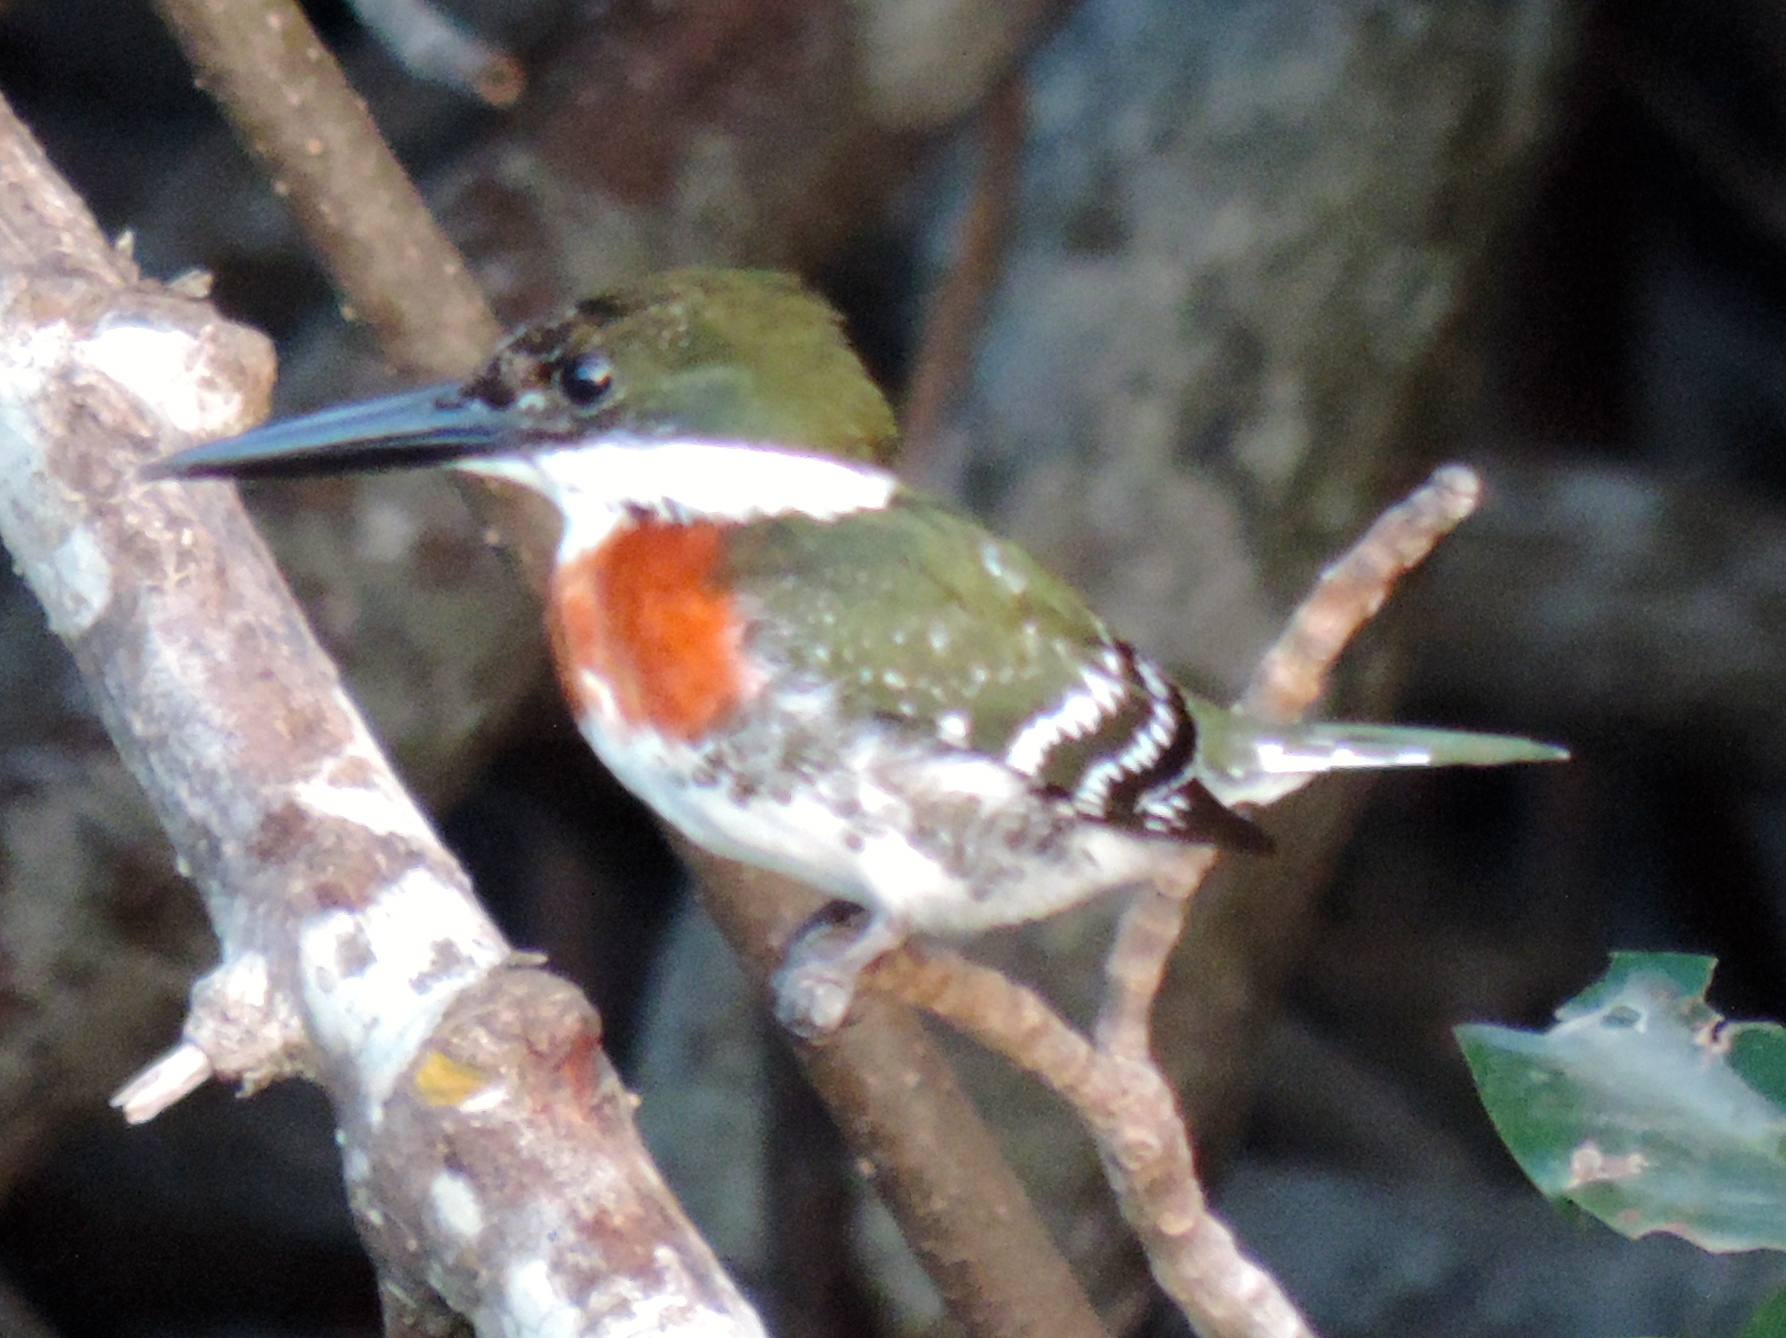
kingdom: Animalia
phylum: Chordata
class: Aves
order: Coraciiformes
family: Alcedinidae
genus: Chloroceryle
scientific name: Chloroceryle americana
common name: Green kingfisher
